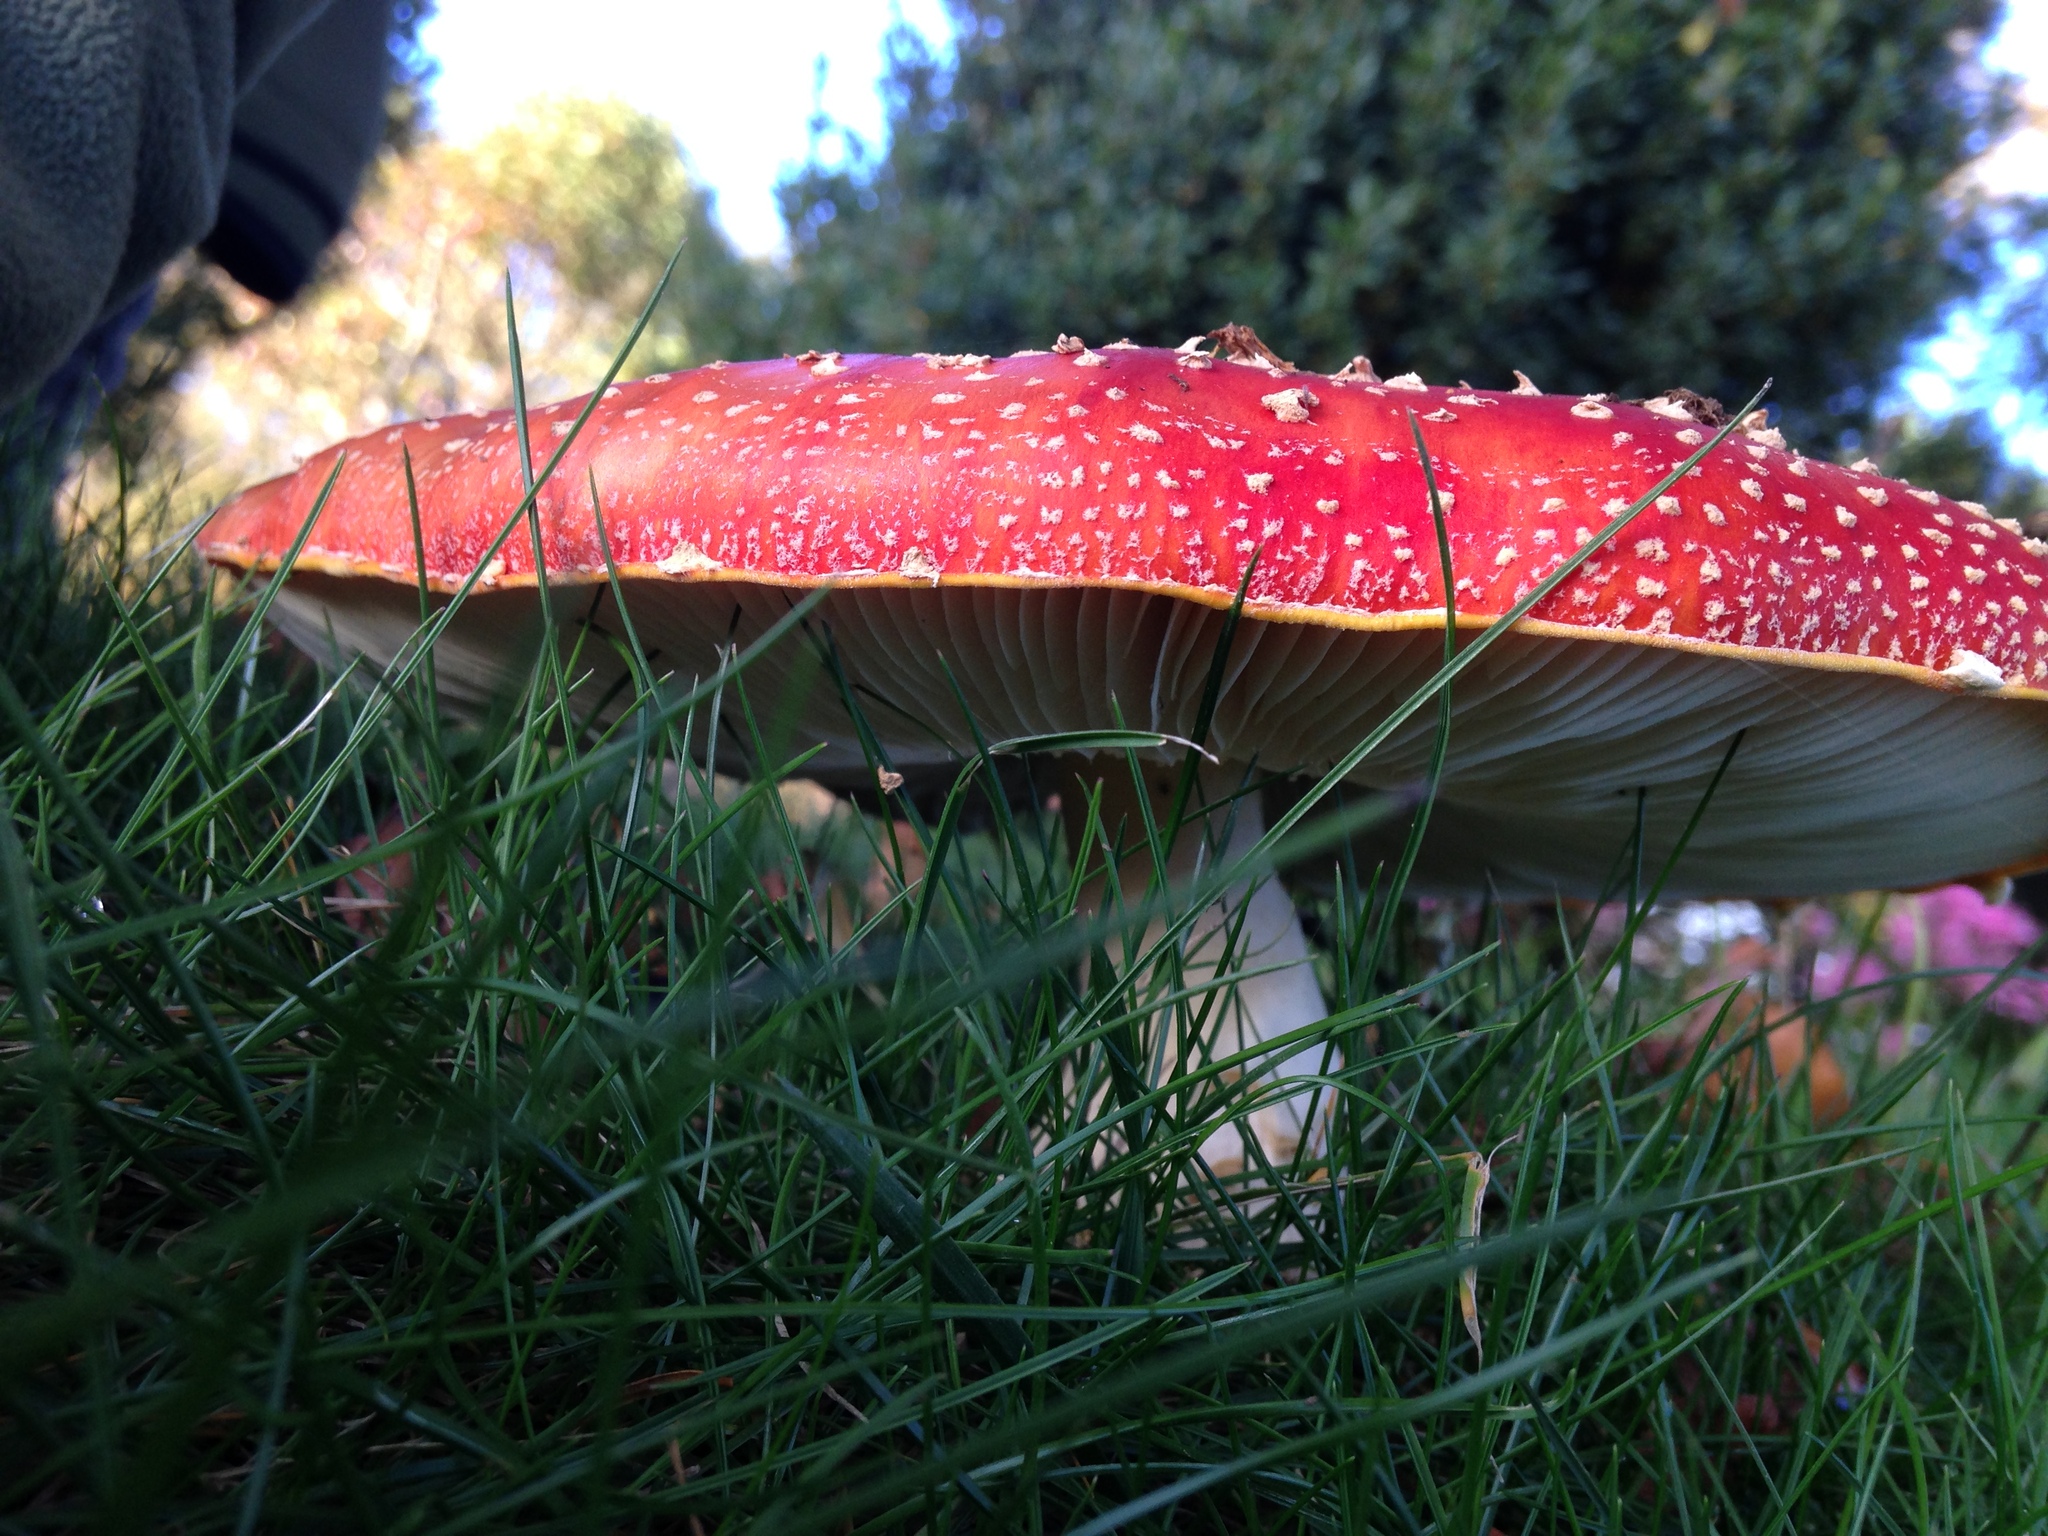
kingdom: Fungi
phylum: Basidiomycota
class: Agaricomycetes
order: Agaricales
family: Amanitaceae
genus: Amanita
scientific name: Amanita muscaria
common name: Fly agaric
